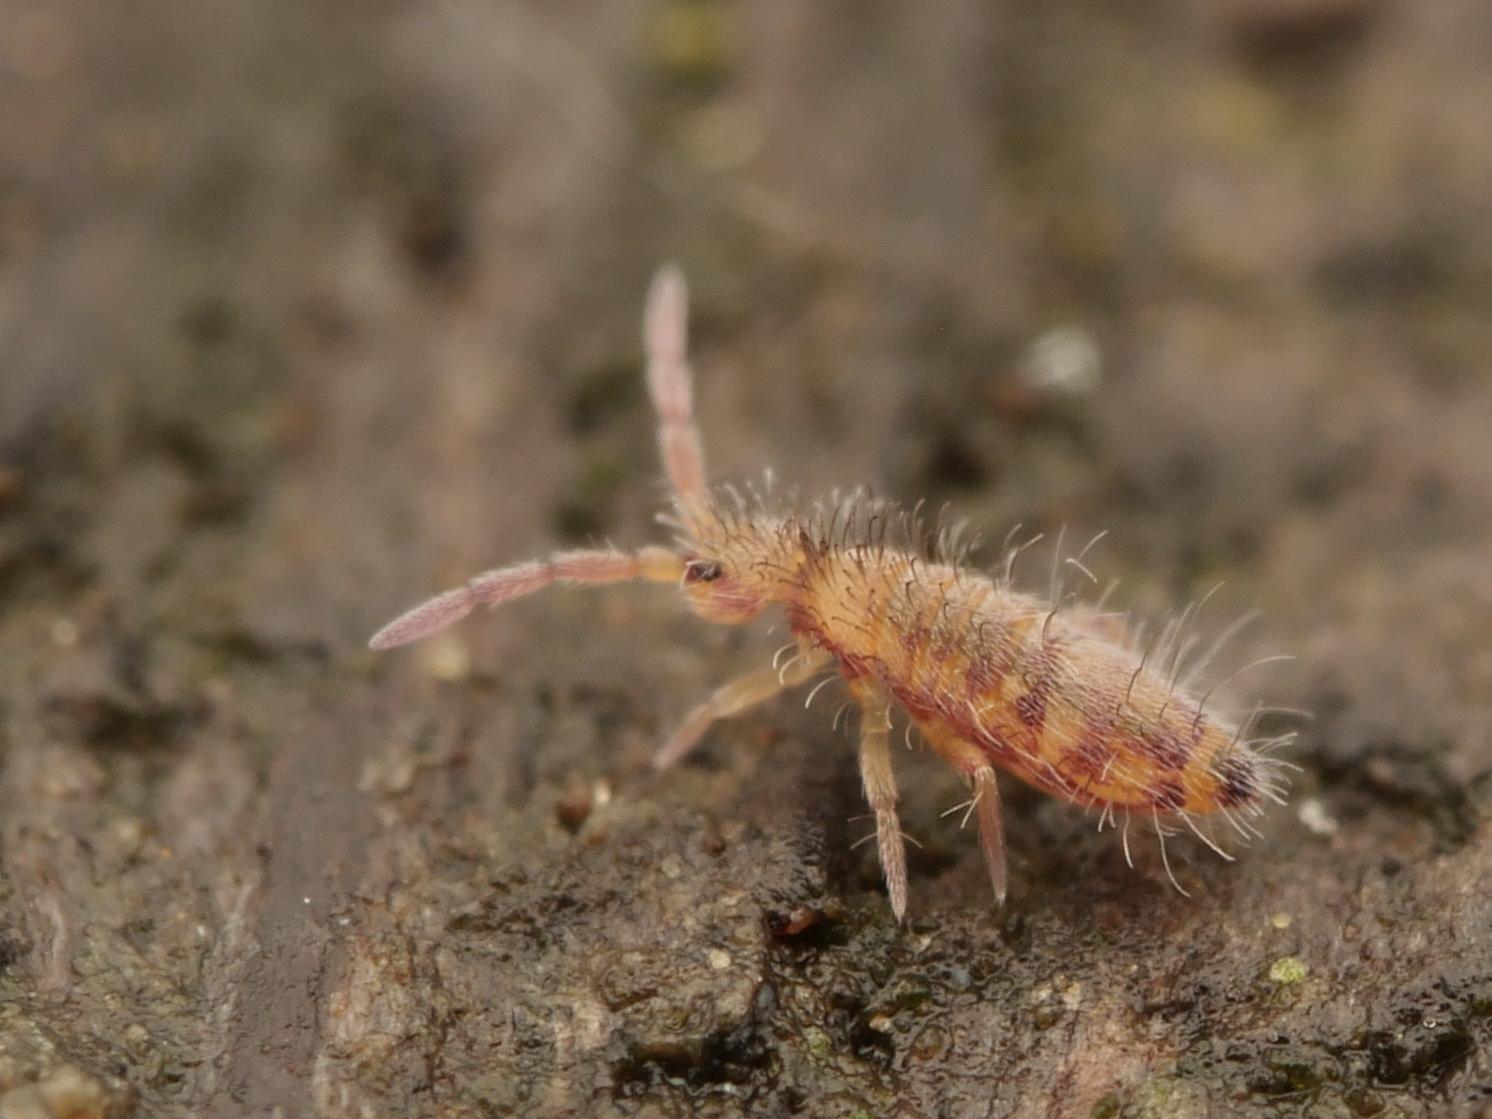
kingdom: Animalia
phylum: Arthropoda
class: Collembola
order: Entomobryomorpha
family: Entomobryidae
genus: Entomobrya
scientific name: Entomobrya multifasciata
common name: Springtail
